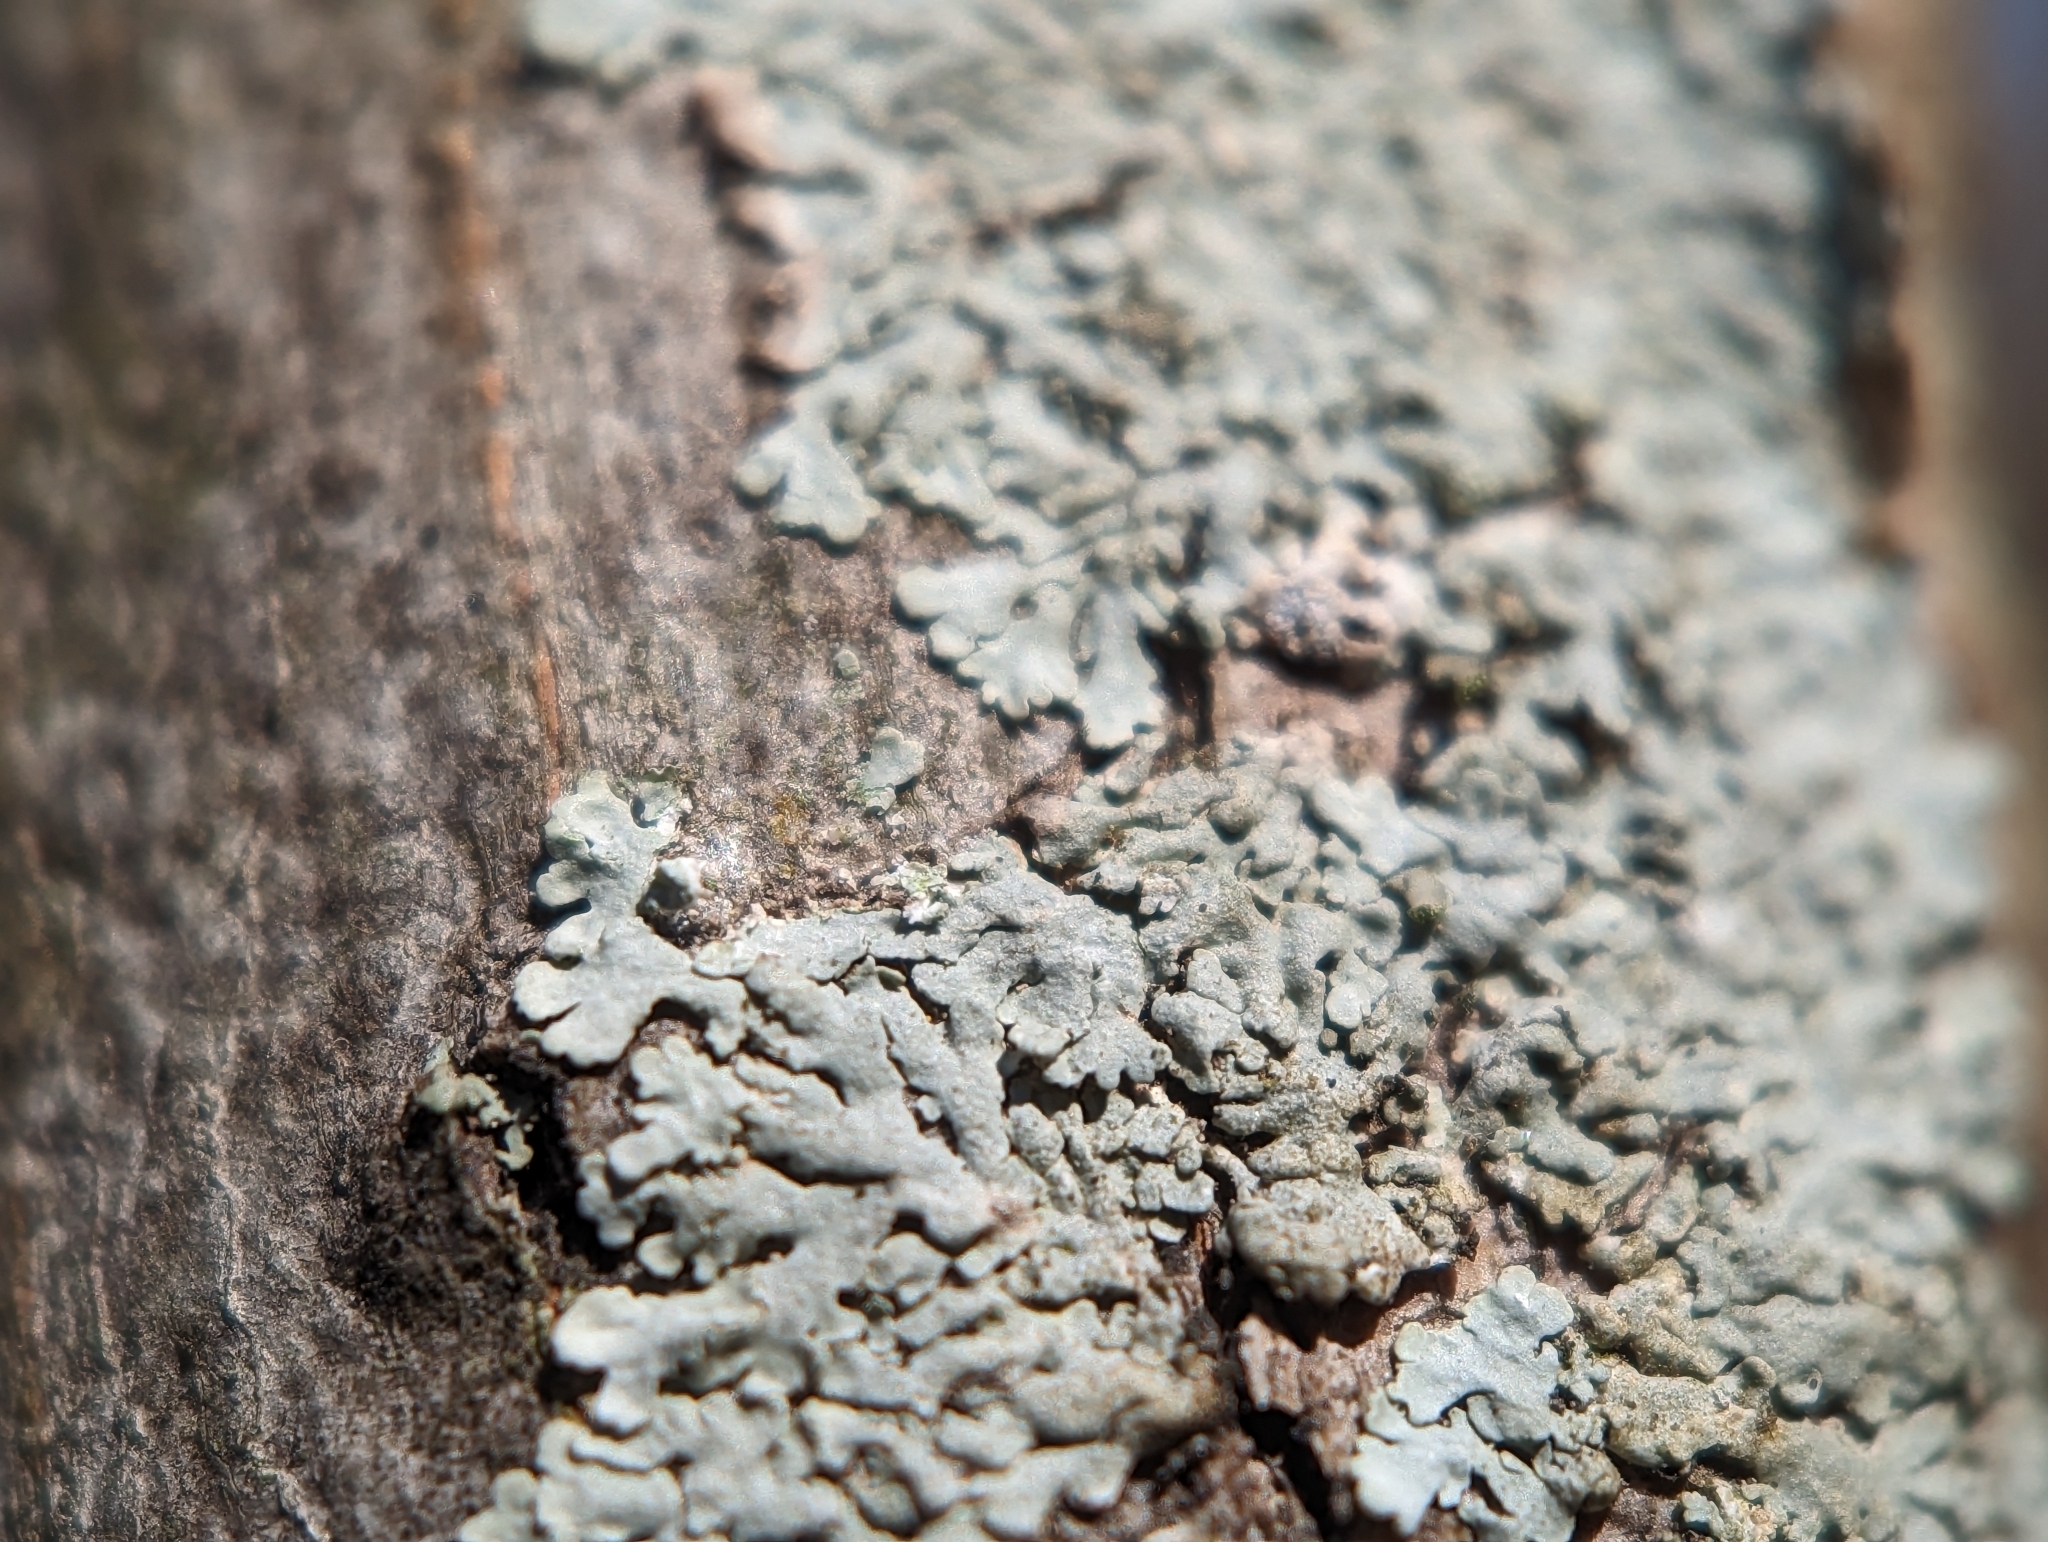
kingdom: Fungi
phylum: Ascomycota
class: Lecanoromycetes
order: Caliciales
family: Physciaceae
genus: Physcia
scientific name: Physcia americana
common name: American rosette lichen
